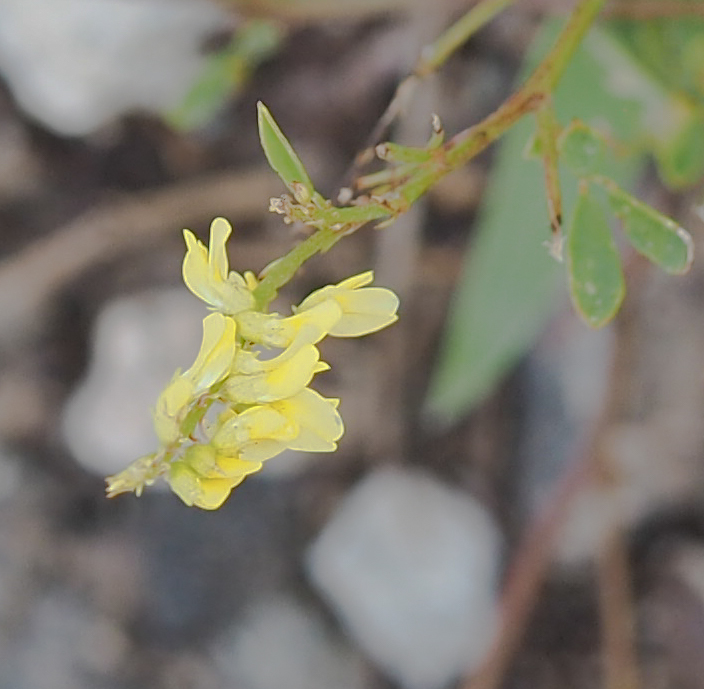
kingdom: Plantae
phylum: Tracheophyta
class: Magnoliopsida
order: Fabales
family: Fabaceae
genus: Melilotus
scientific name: Melilotus officinalis
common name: Sweetclover
